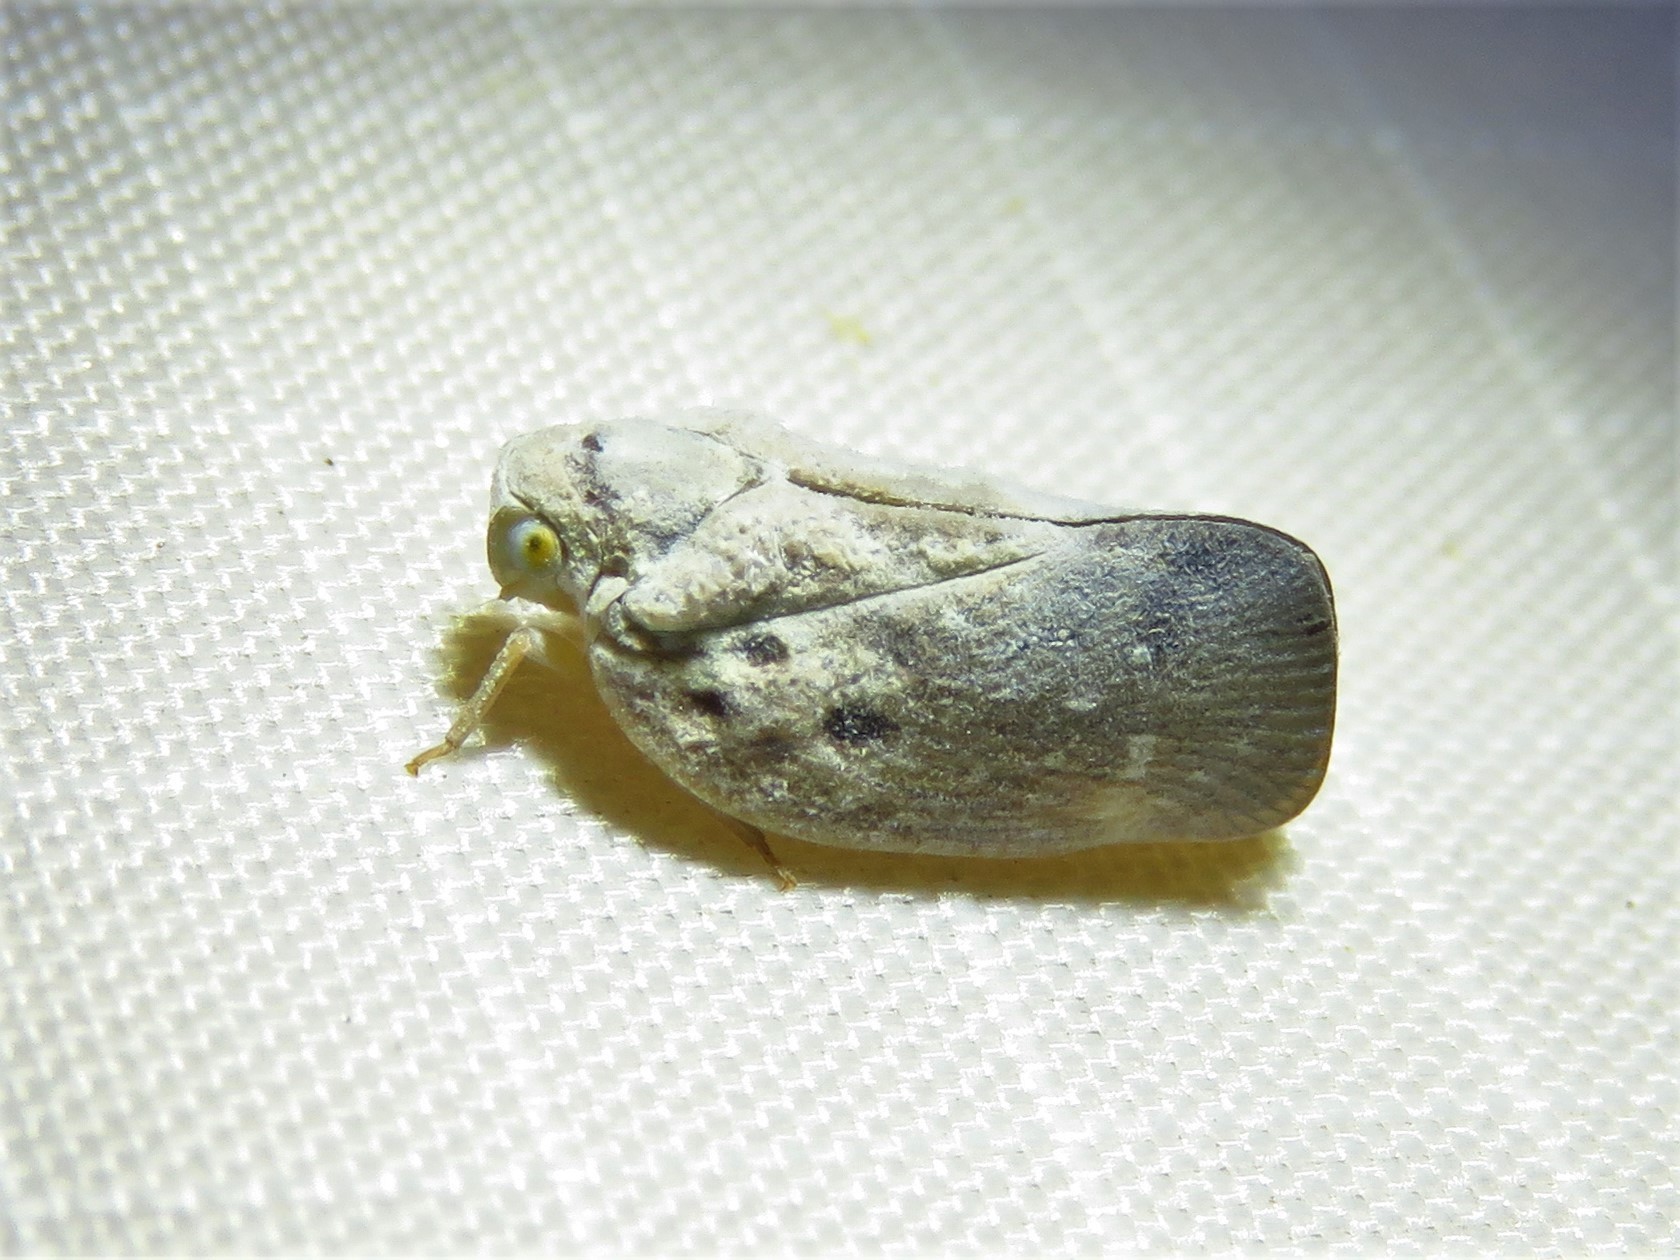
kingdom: Animalia
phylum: Arthropoda
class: Insecta
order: Hemiptera
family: Flatidae
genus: Metcalfa
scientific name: Metcalfa pruinosa
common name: Citrus flatid planthopper
